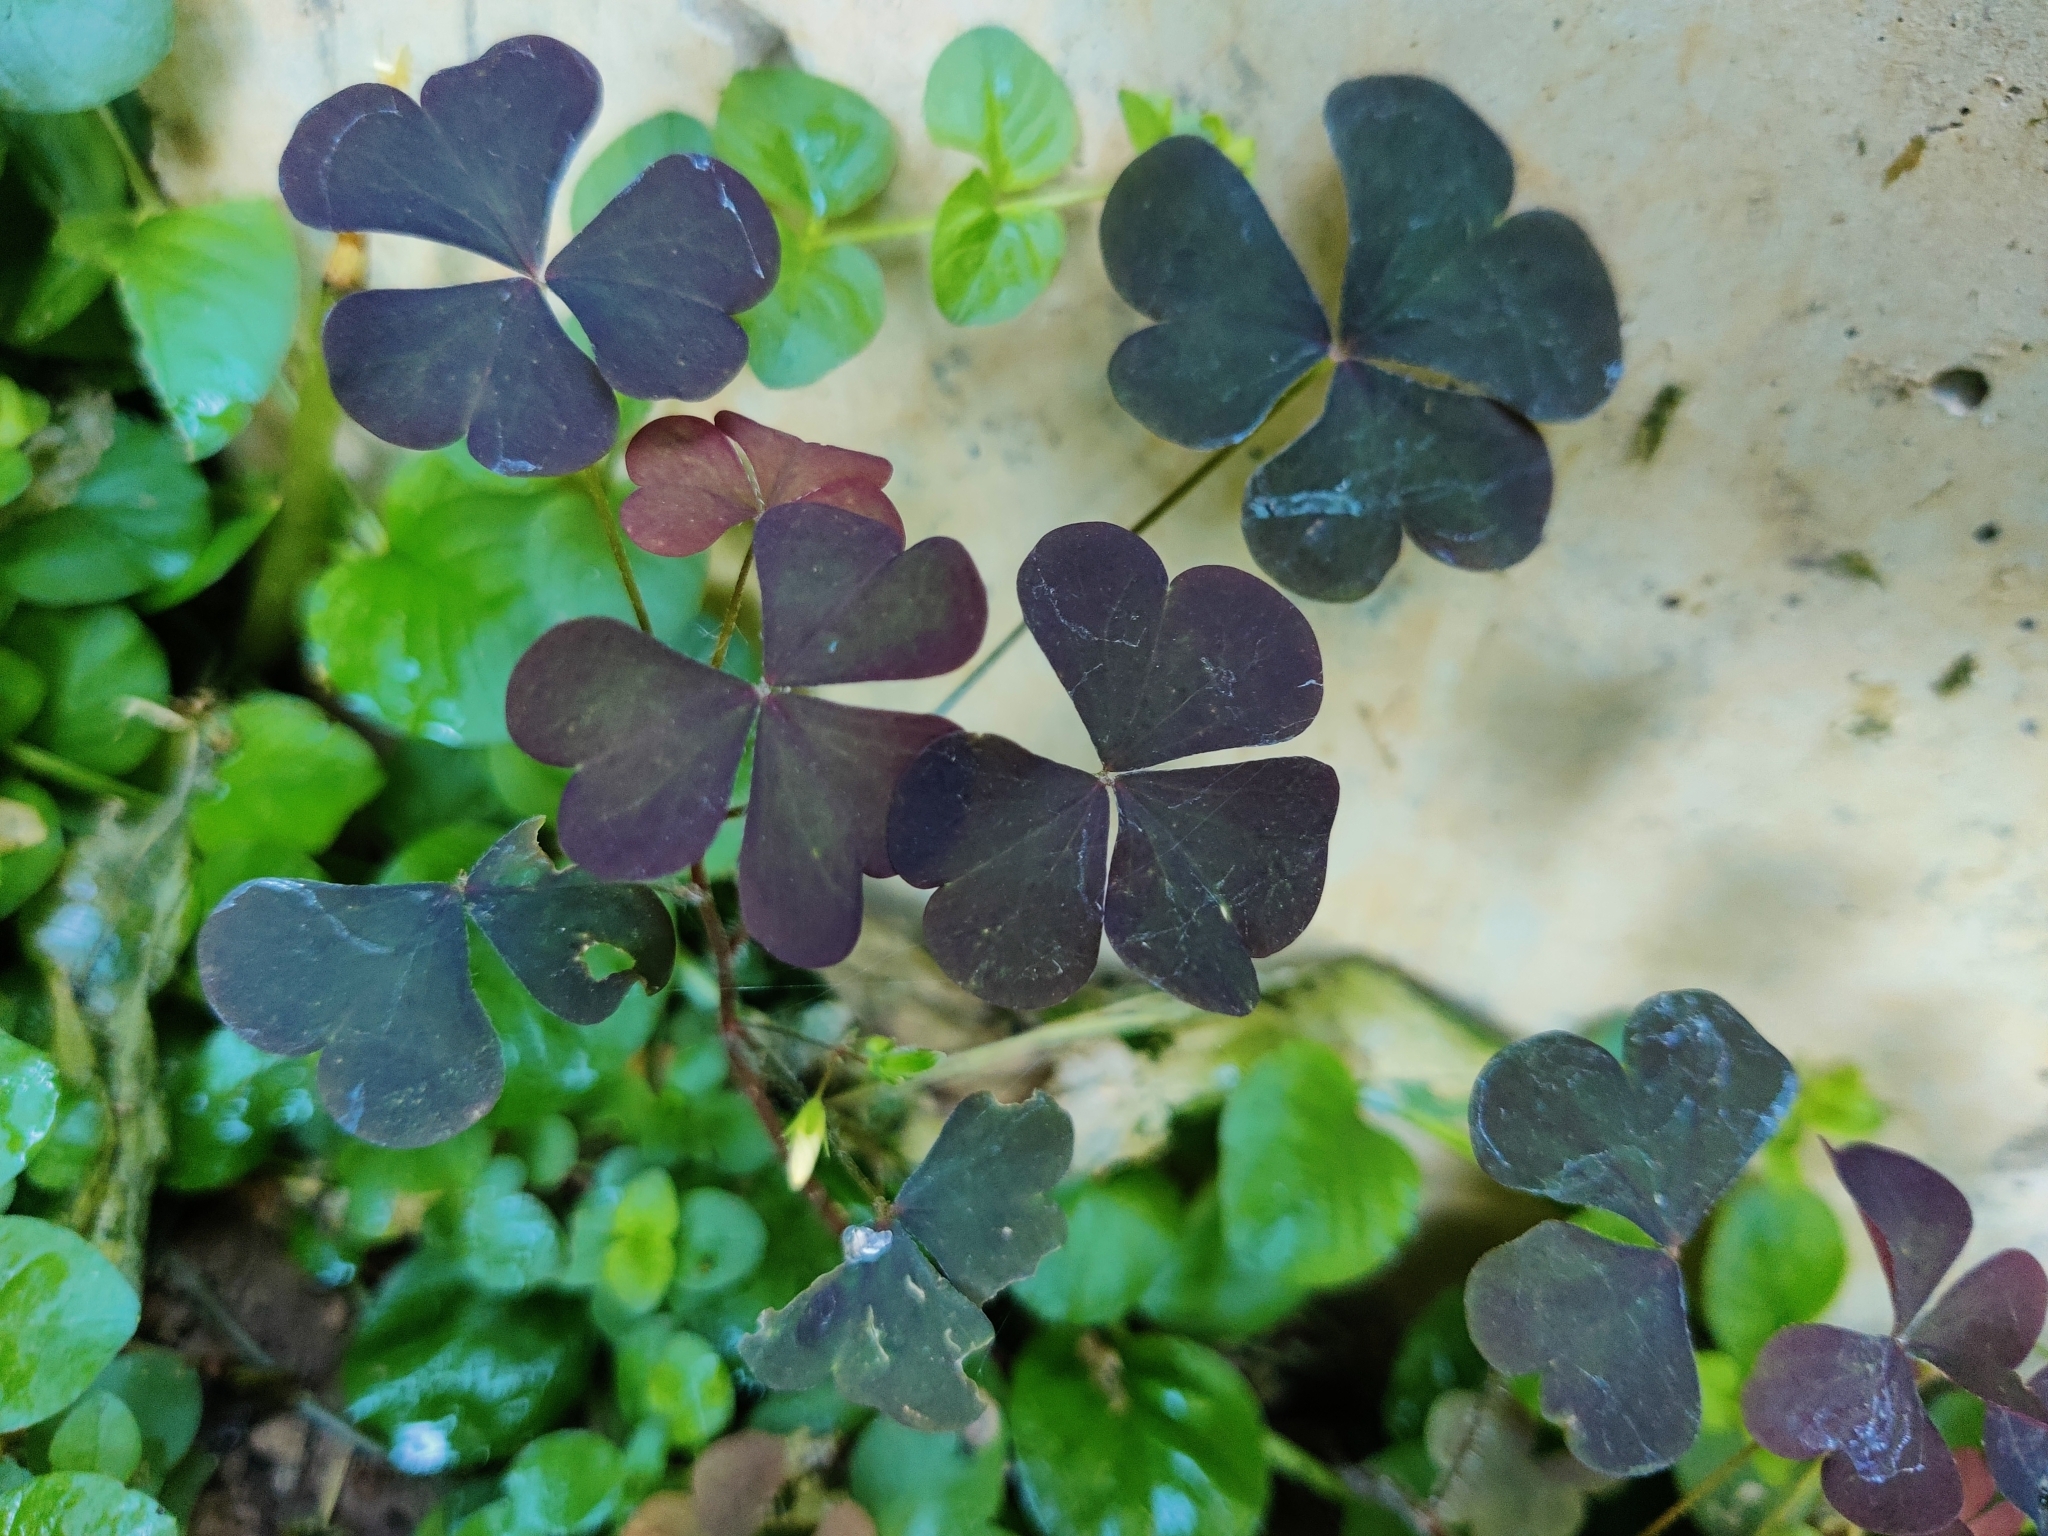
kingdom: Plantae
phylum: Tracheophyta
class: Magnoliopsida
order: Oxalidales
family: Oxalidaceae
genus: Oxalis
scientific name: Oxalis stricta
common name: Upright yellow-sorrel
